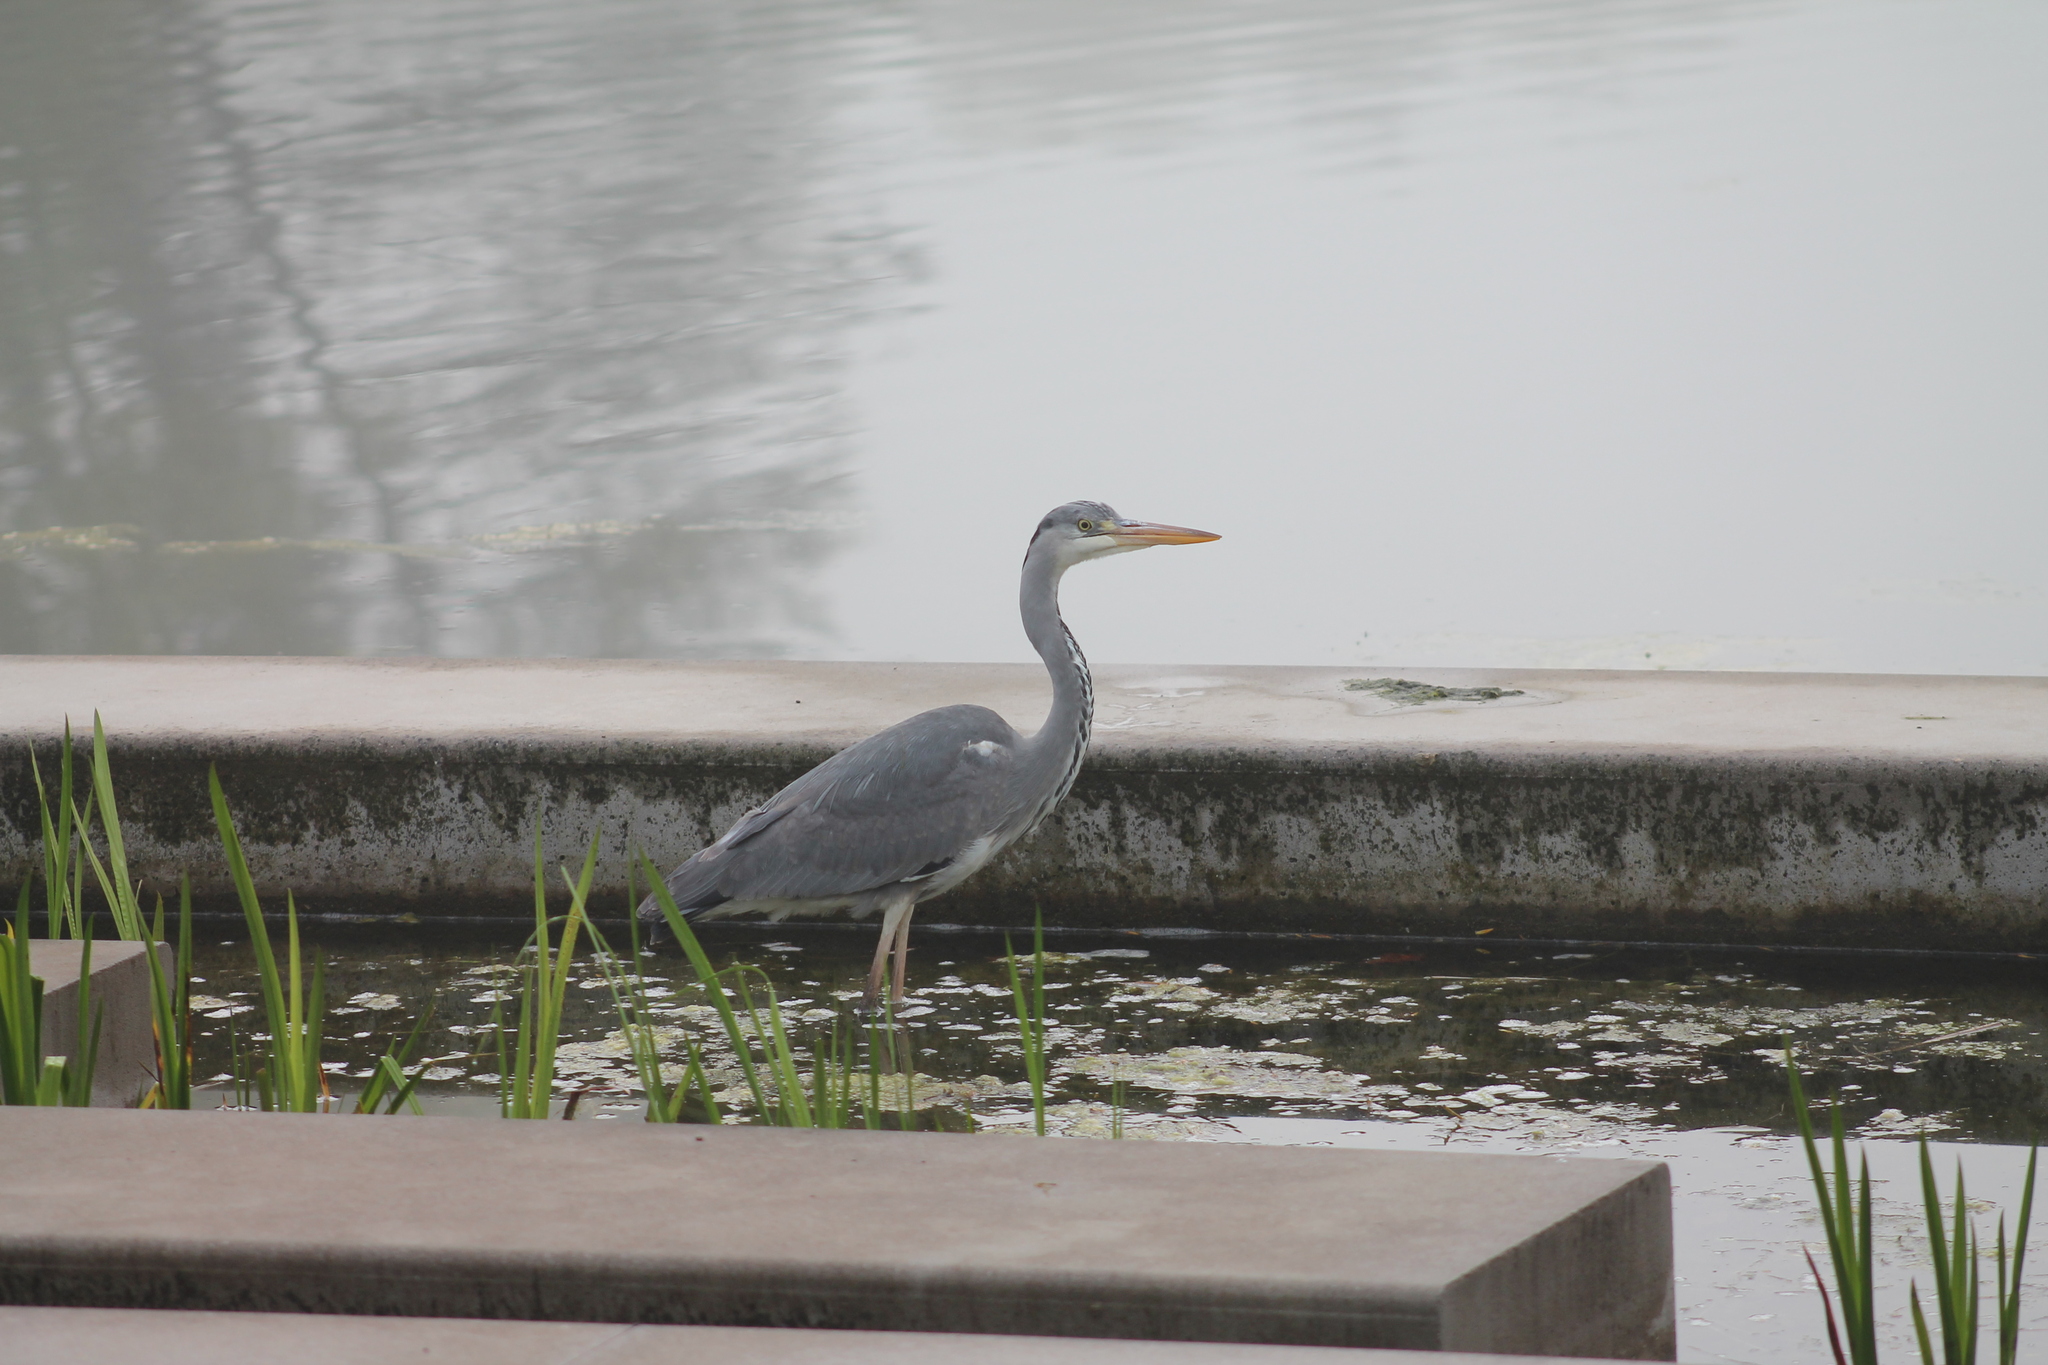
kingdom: Animalia
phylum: Chordata
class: Aves
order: Pelecaniformes
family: Ardeidae
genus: Ardea
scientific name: Ardea cinerea
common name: Grey heron
